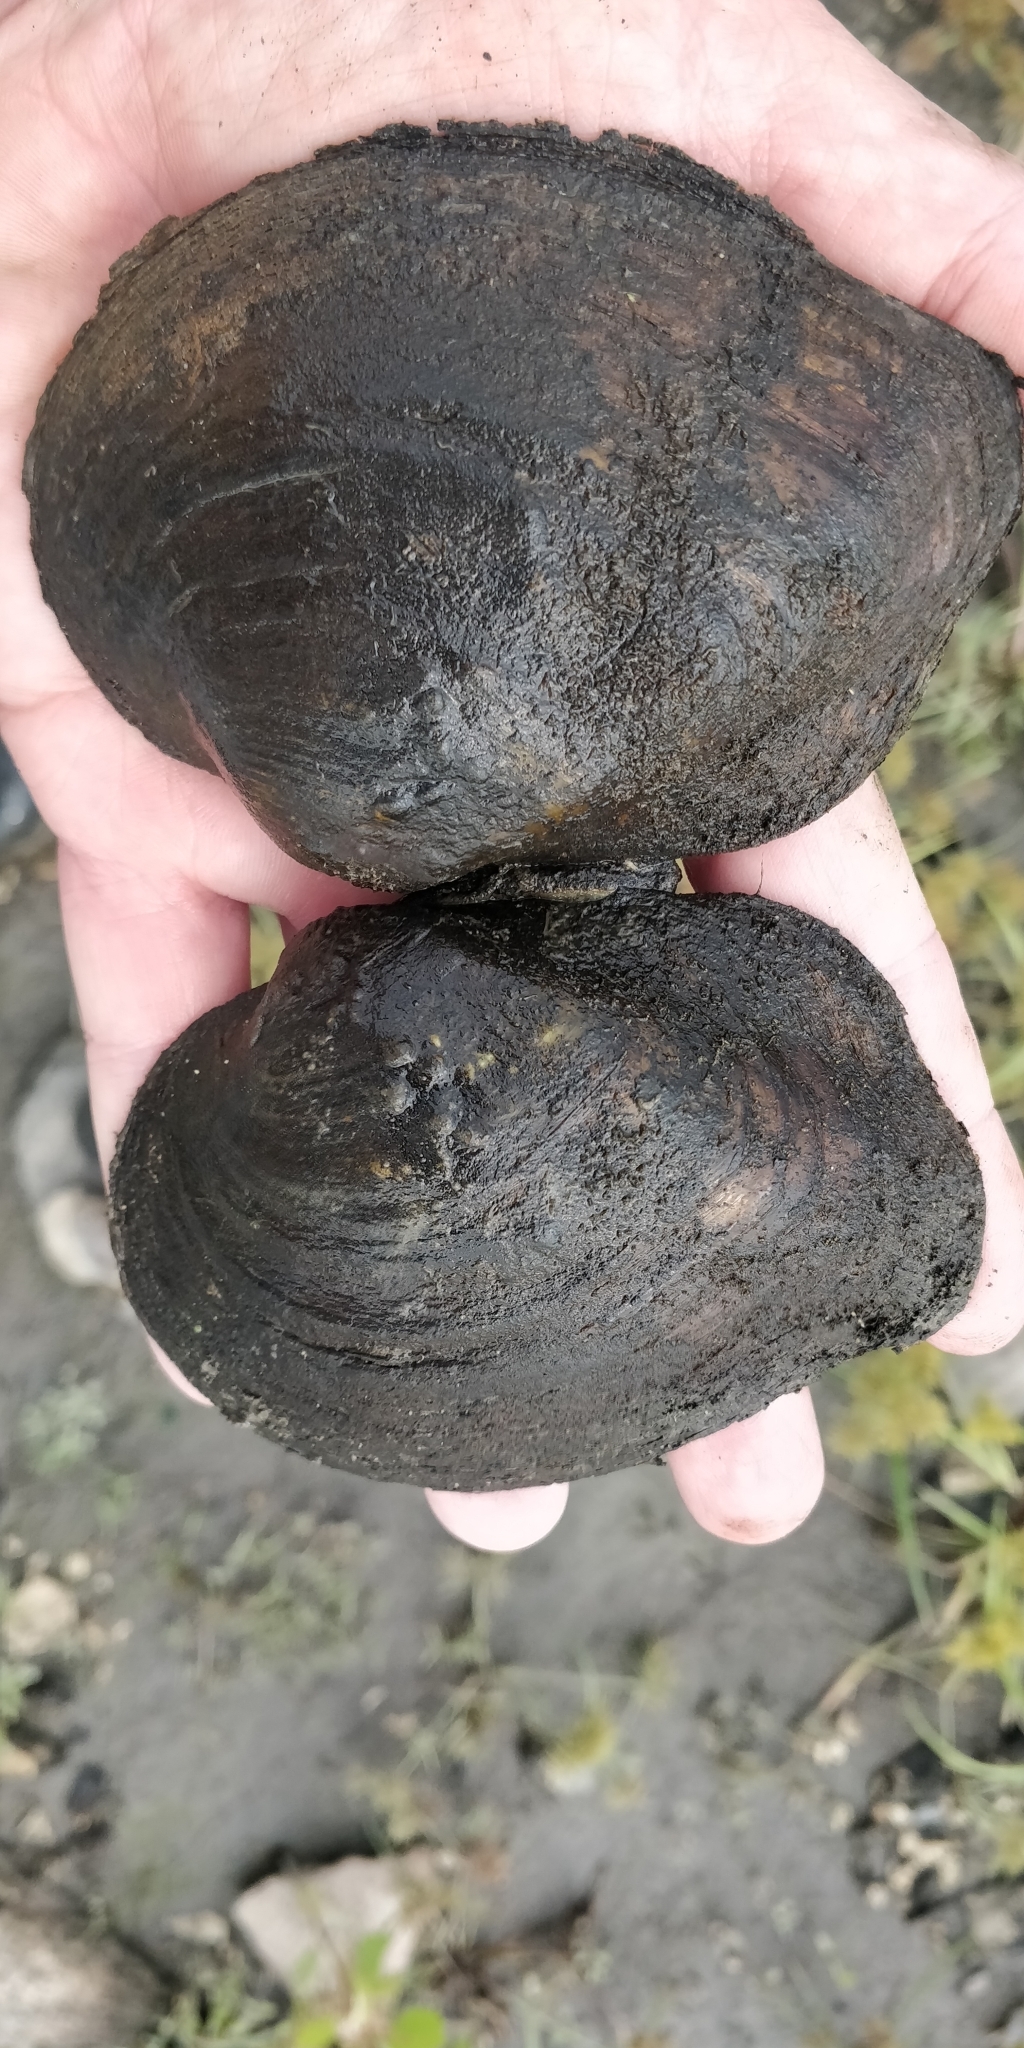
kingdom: Animalia
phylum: Mollusca
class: Bivalvia
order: Unionida
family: Unionidae
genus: Quadrula
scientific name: Quadrula quadrula
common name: Mapleleaf
